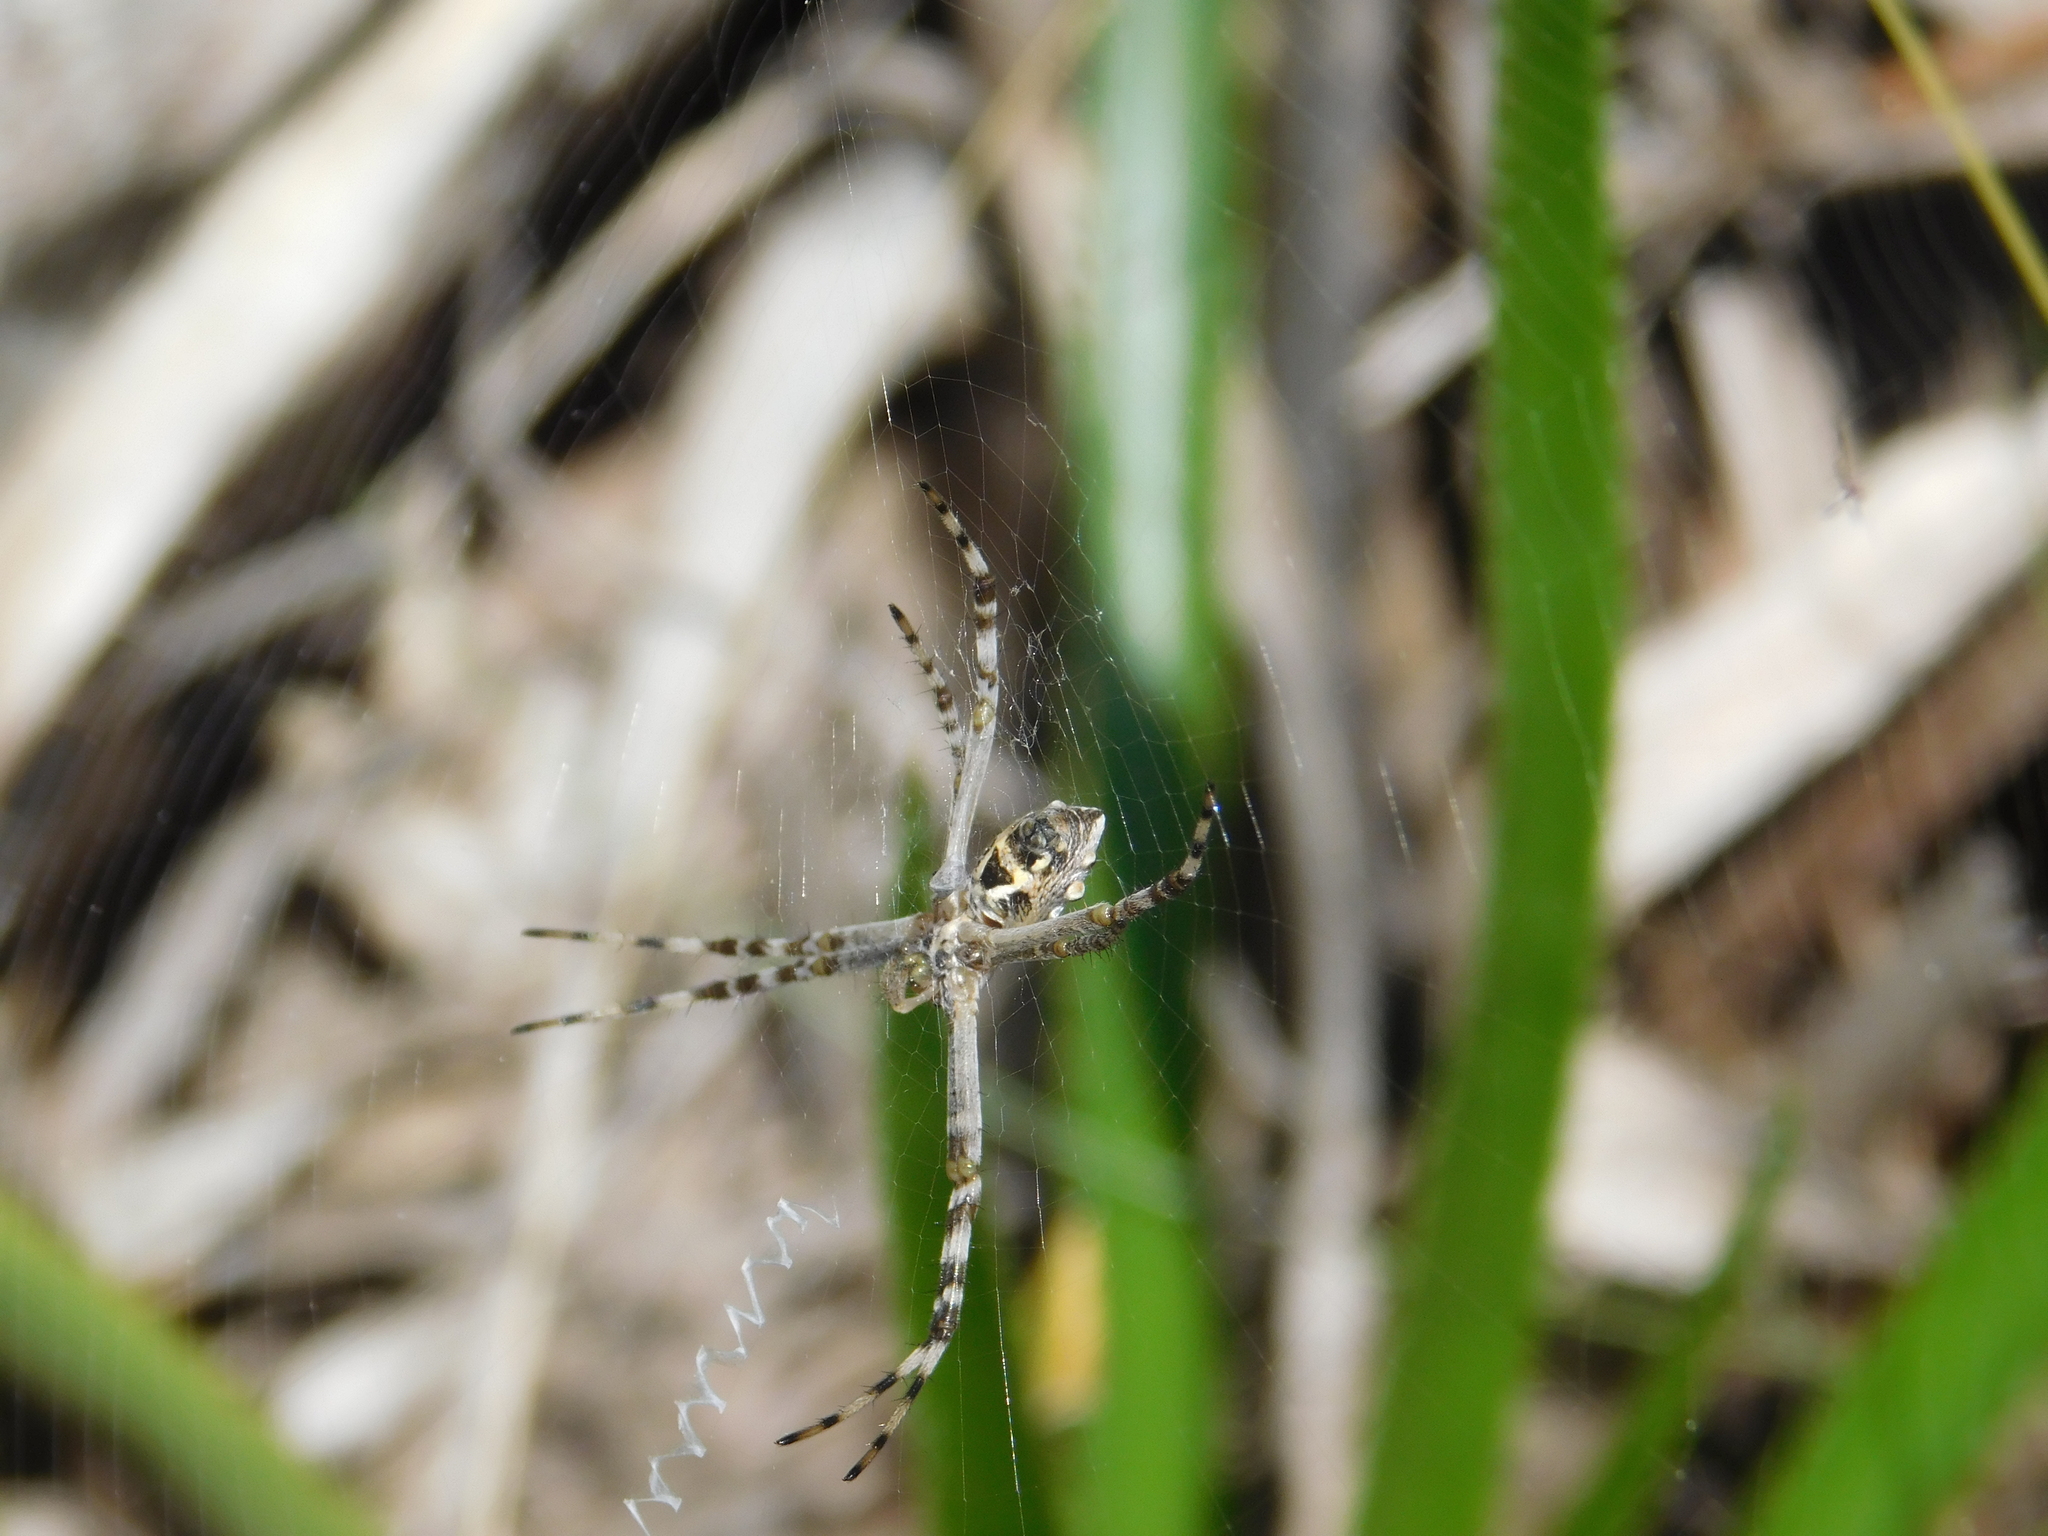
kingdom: Animalia
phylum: Arthropoda
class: Arachnida
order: Araneae
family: Araneidae
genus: Argiope
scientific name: Argiope argentata
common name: Orb weavers
